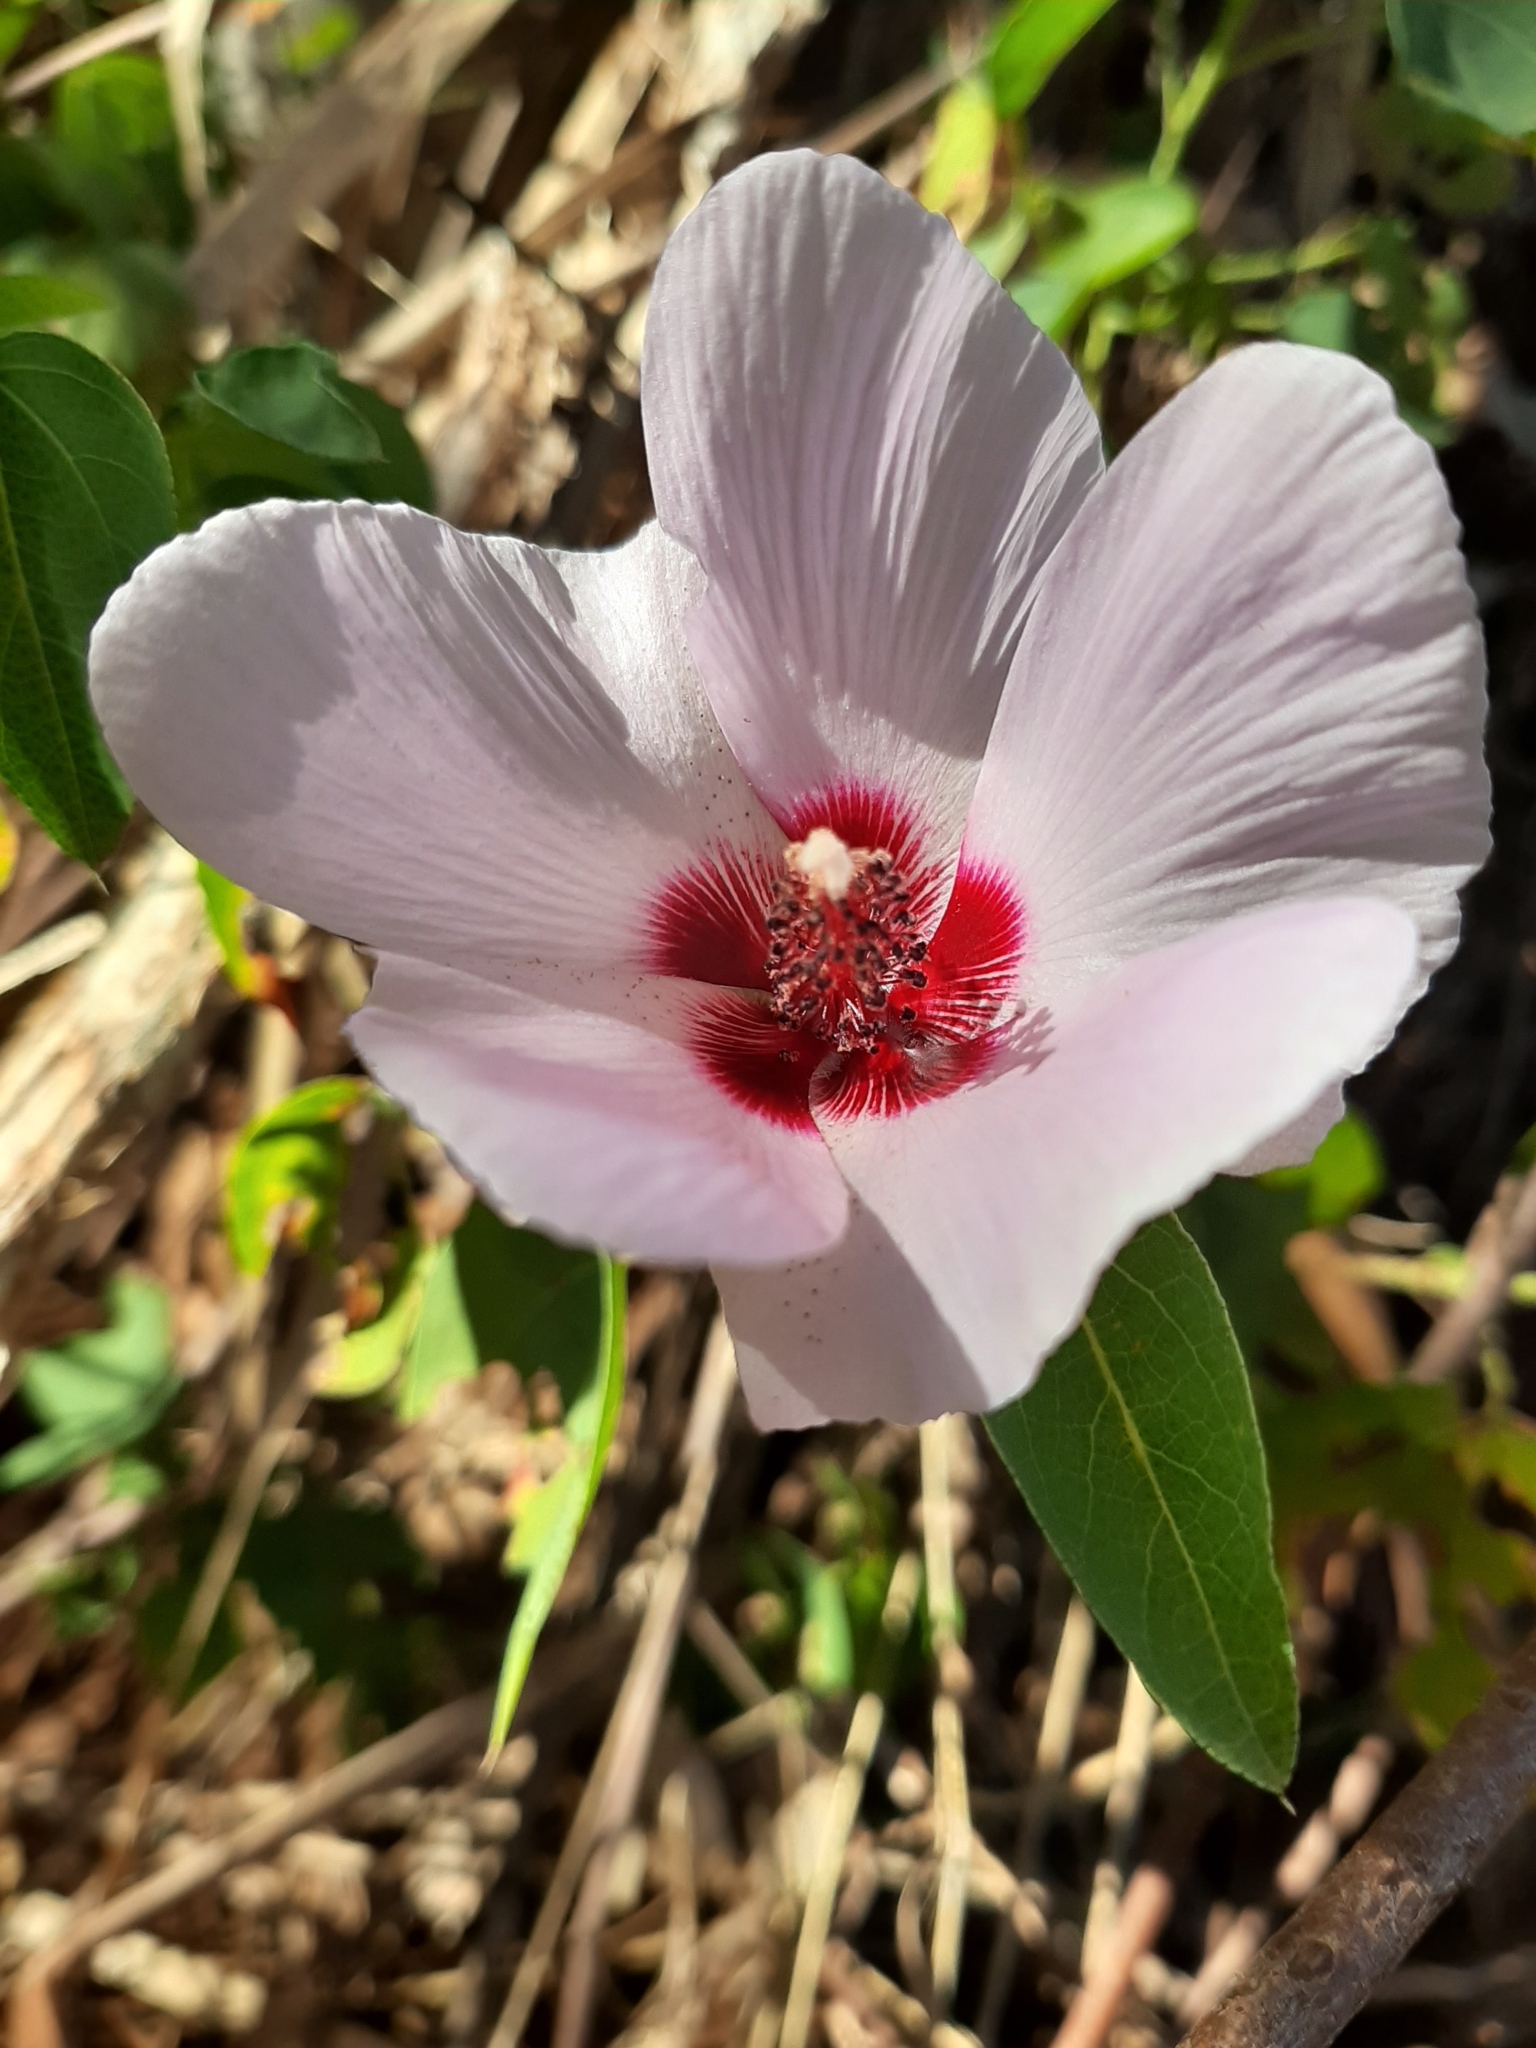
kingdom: Plantae
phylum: Tracheophyta
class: Magnoliopsida
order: Malvales
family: Malvaceae
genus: Gossypium
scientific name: Gossypium robinsonii
